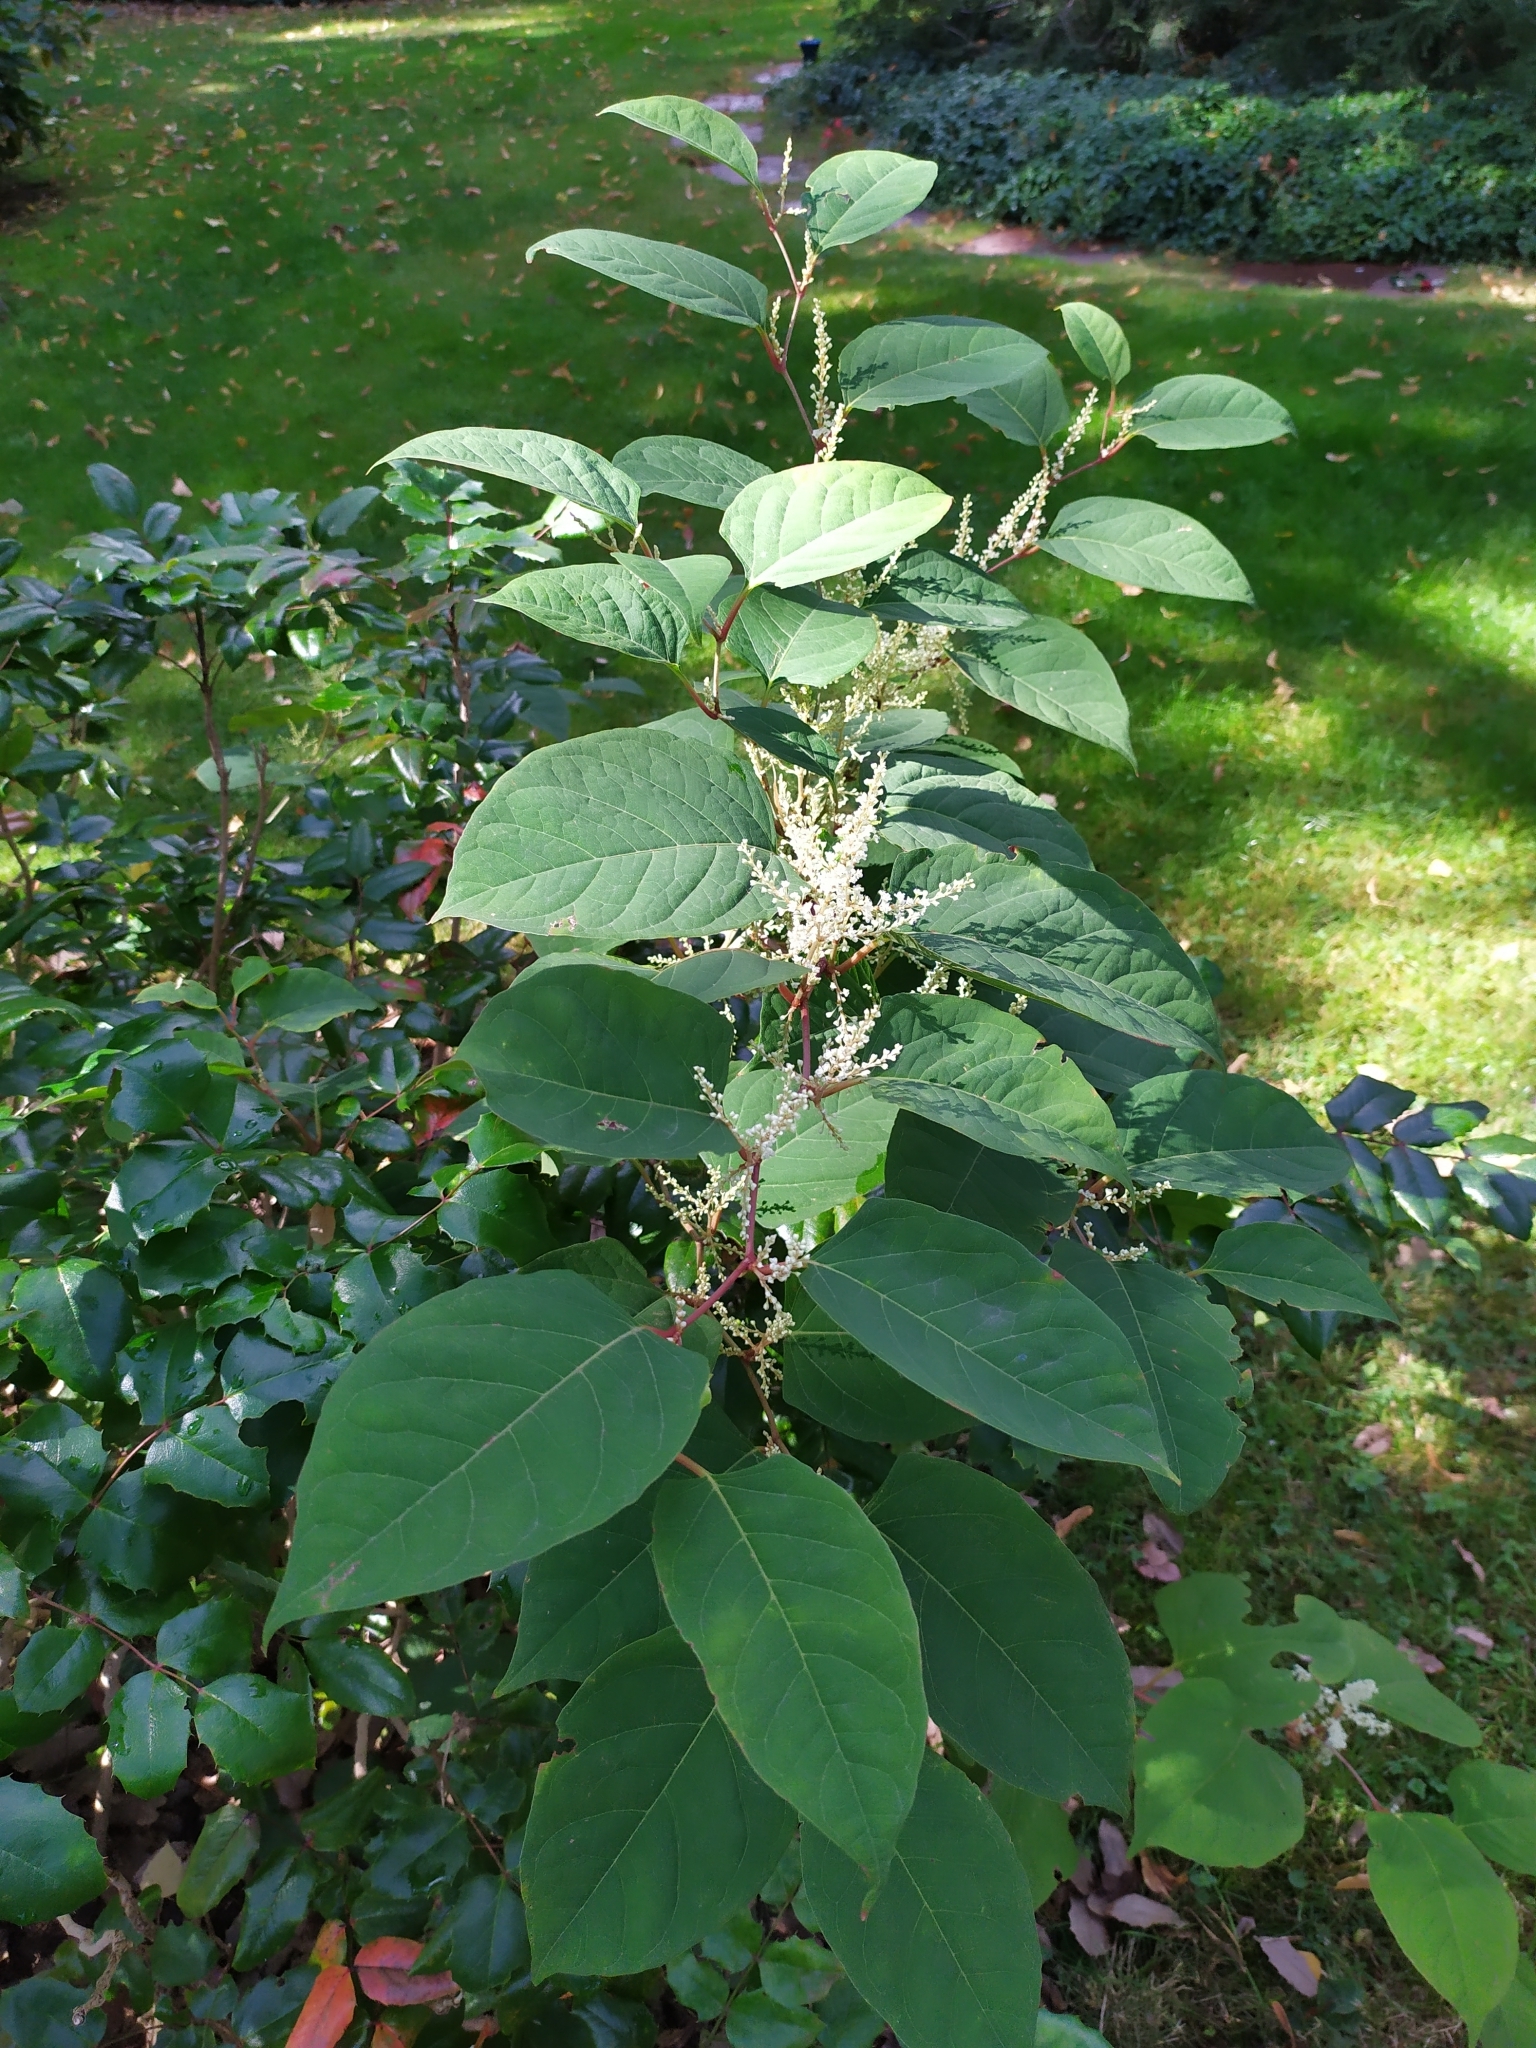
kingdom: Plantae
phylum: Tracheophyta
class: Magnoliopsida
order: Caryophyllales
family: Polygonaceae
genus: Reynoutria
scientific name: Reynoutria bohemica
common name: Bohemian knotweed
